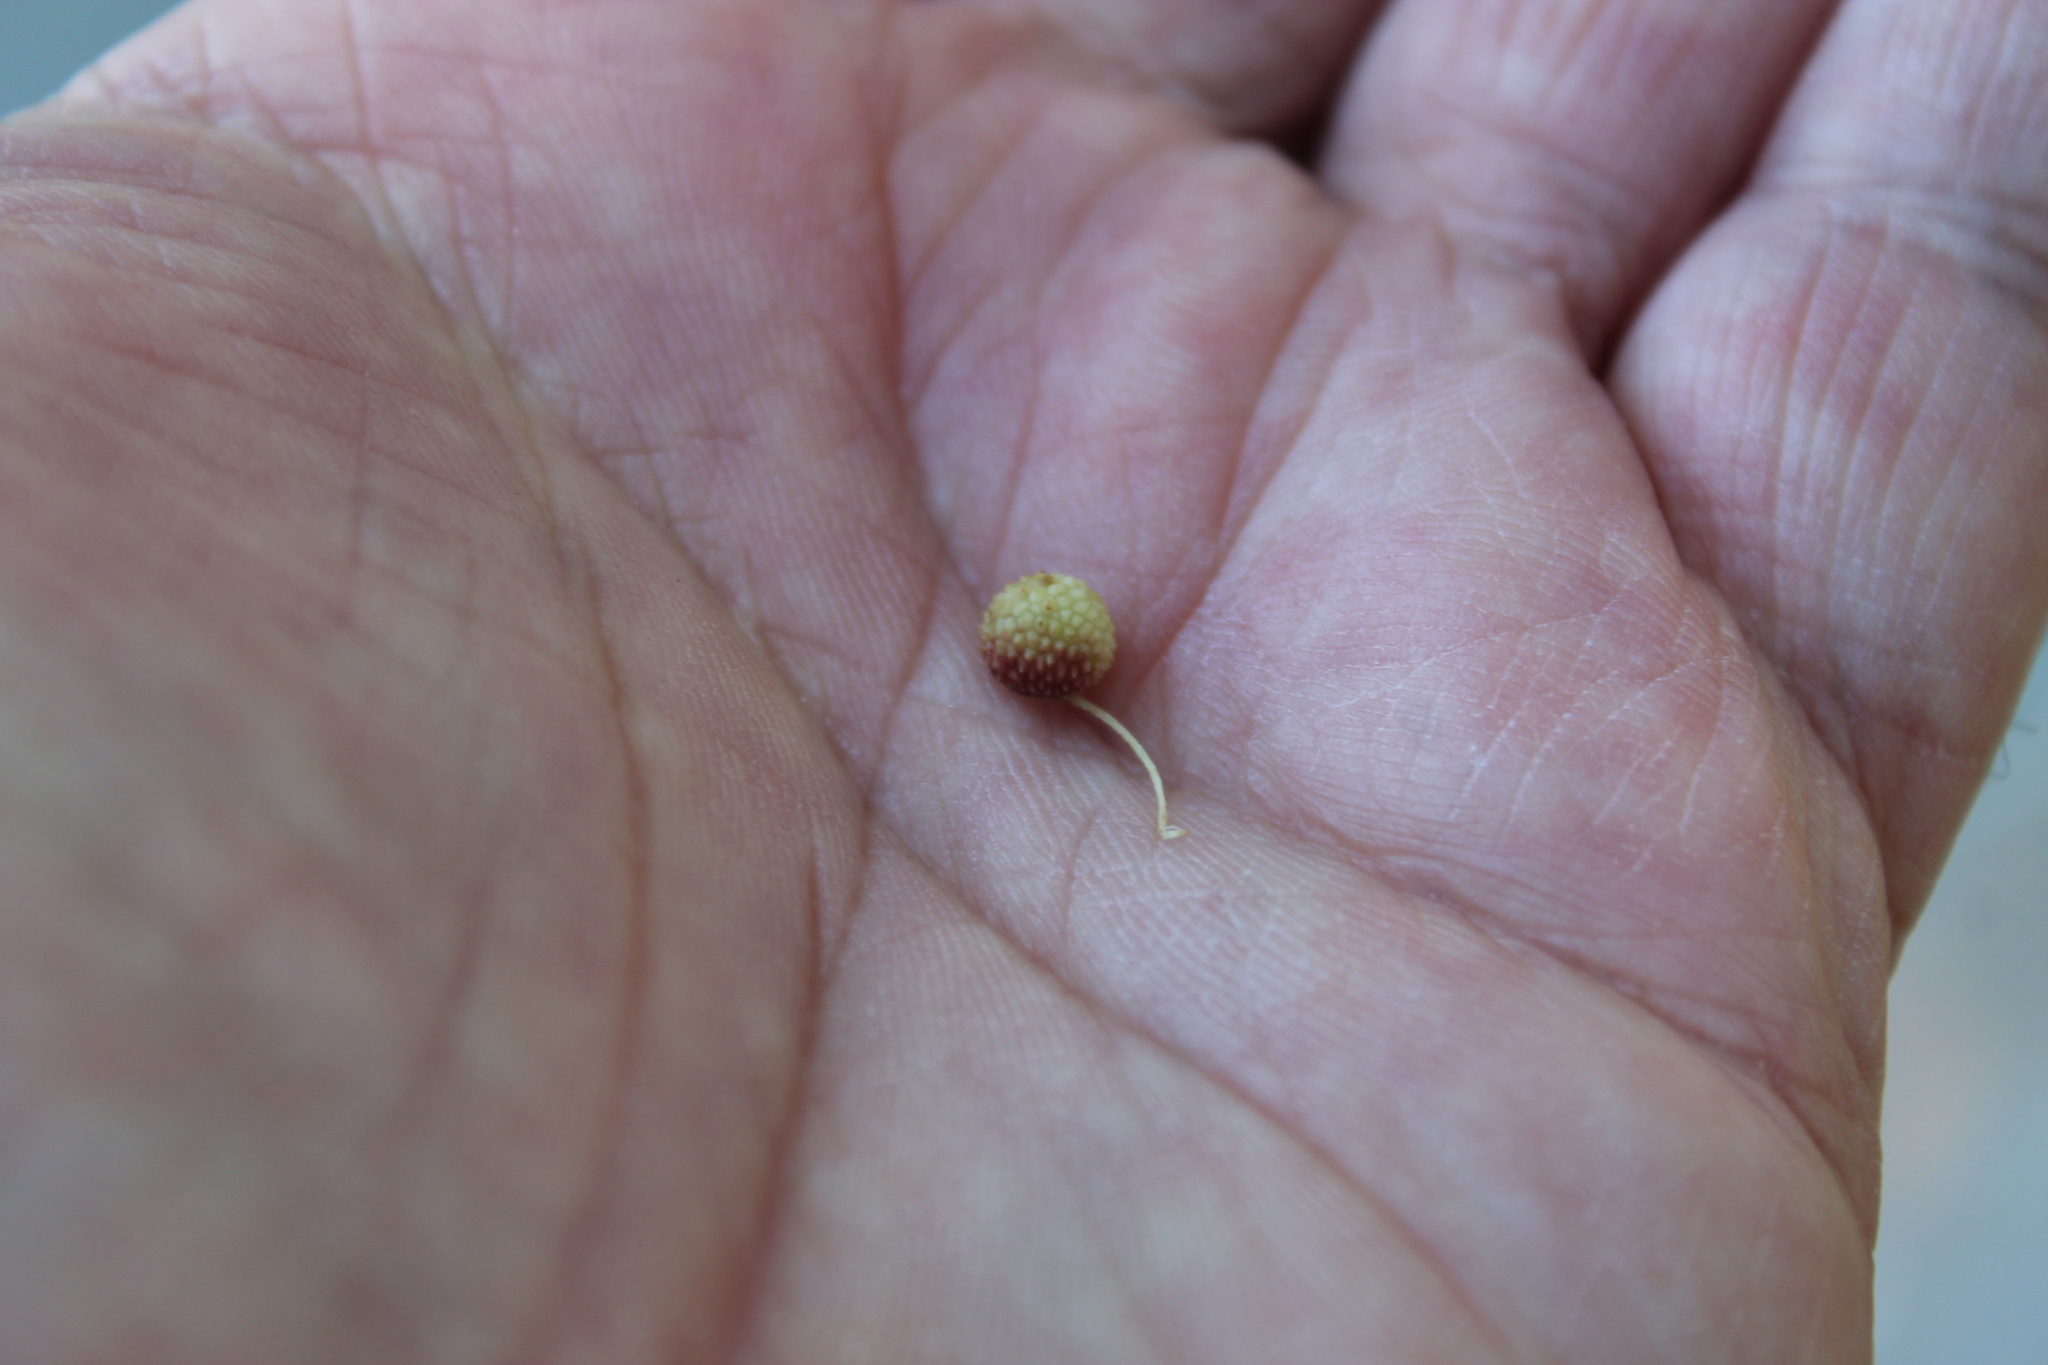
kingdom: Animalia
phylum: Arthropoda
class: Insecta
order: Hymenoptera
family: Cynipidae
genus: Acraspis
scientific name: Acraspis quercushirta
